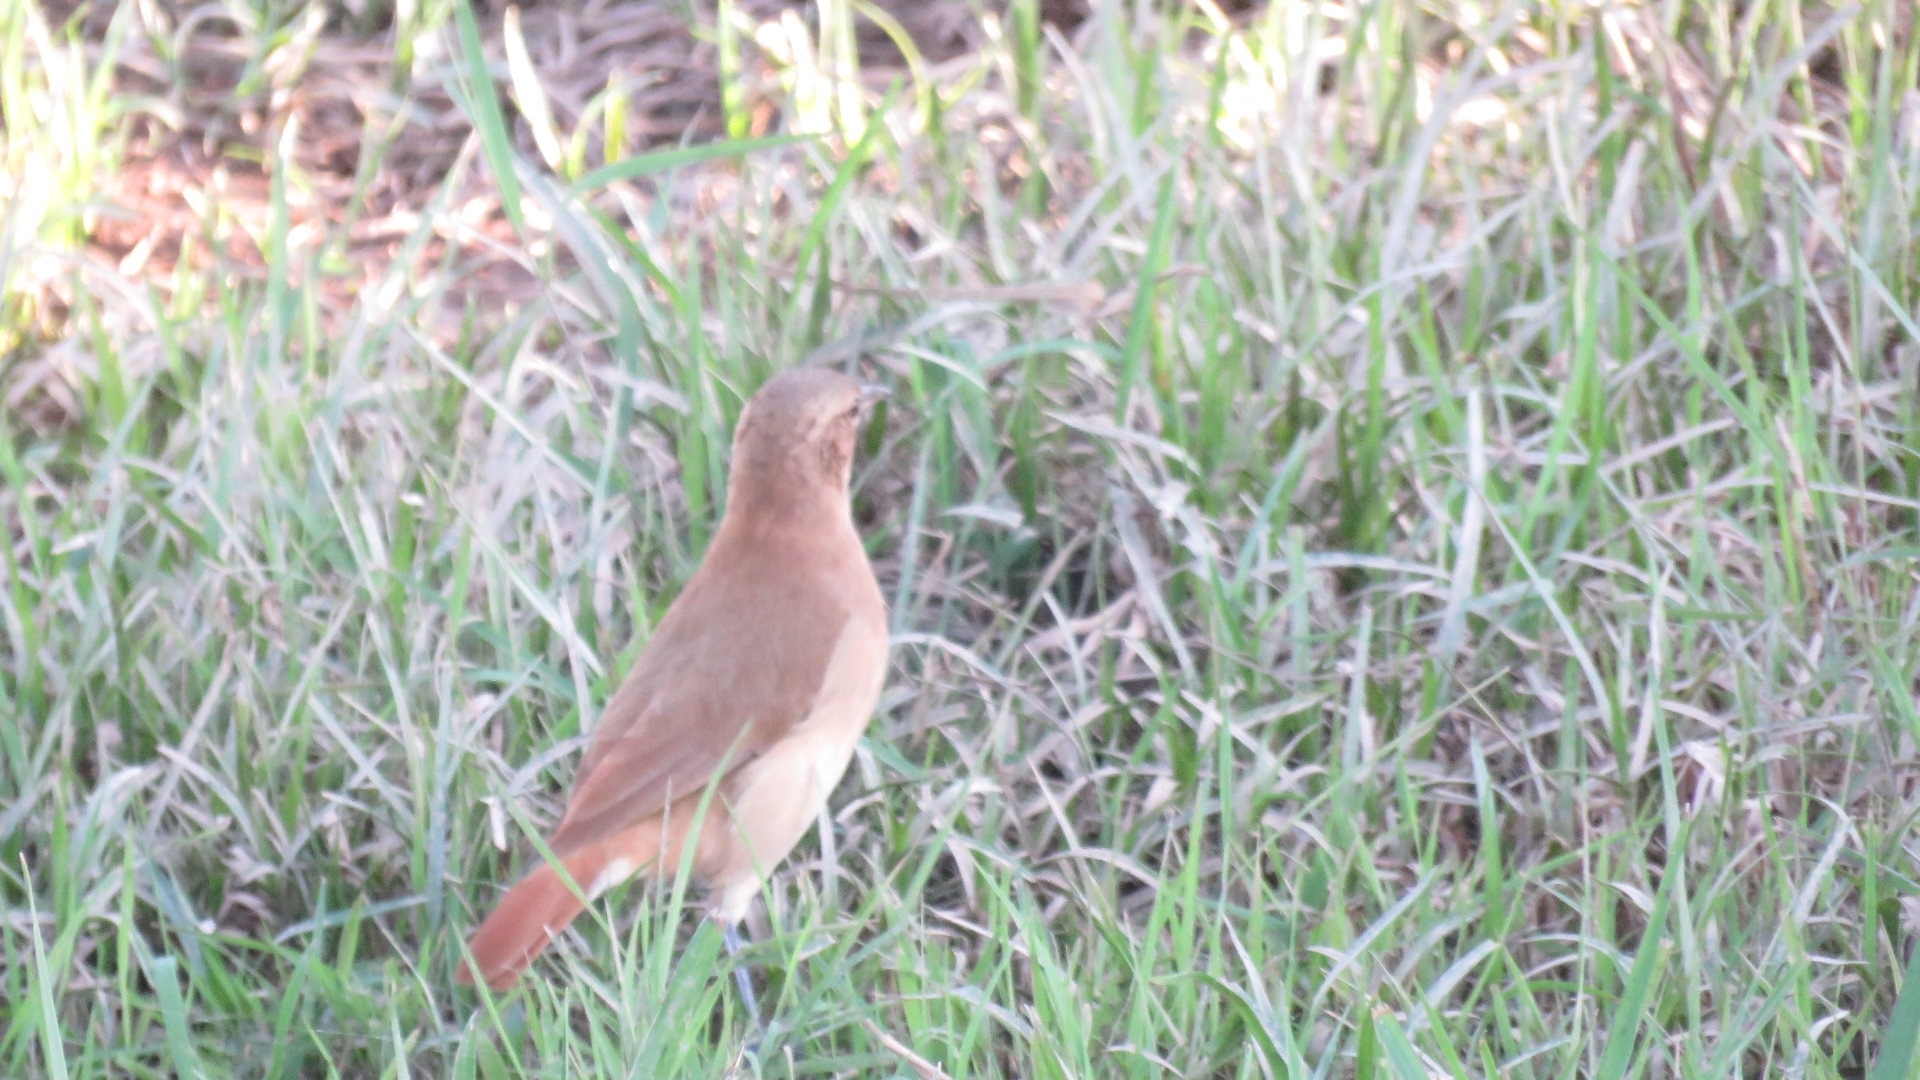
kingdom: Animalia
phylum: Chordata
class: Aves
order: Passeriformes
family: Furnariidae
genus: Furnarius
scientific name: Furnarius rufus
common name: Rufous hornero
